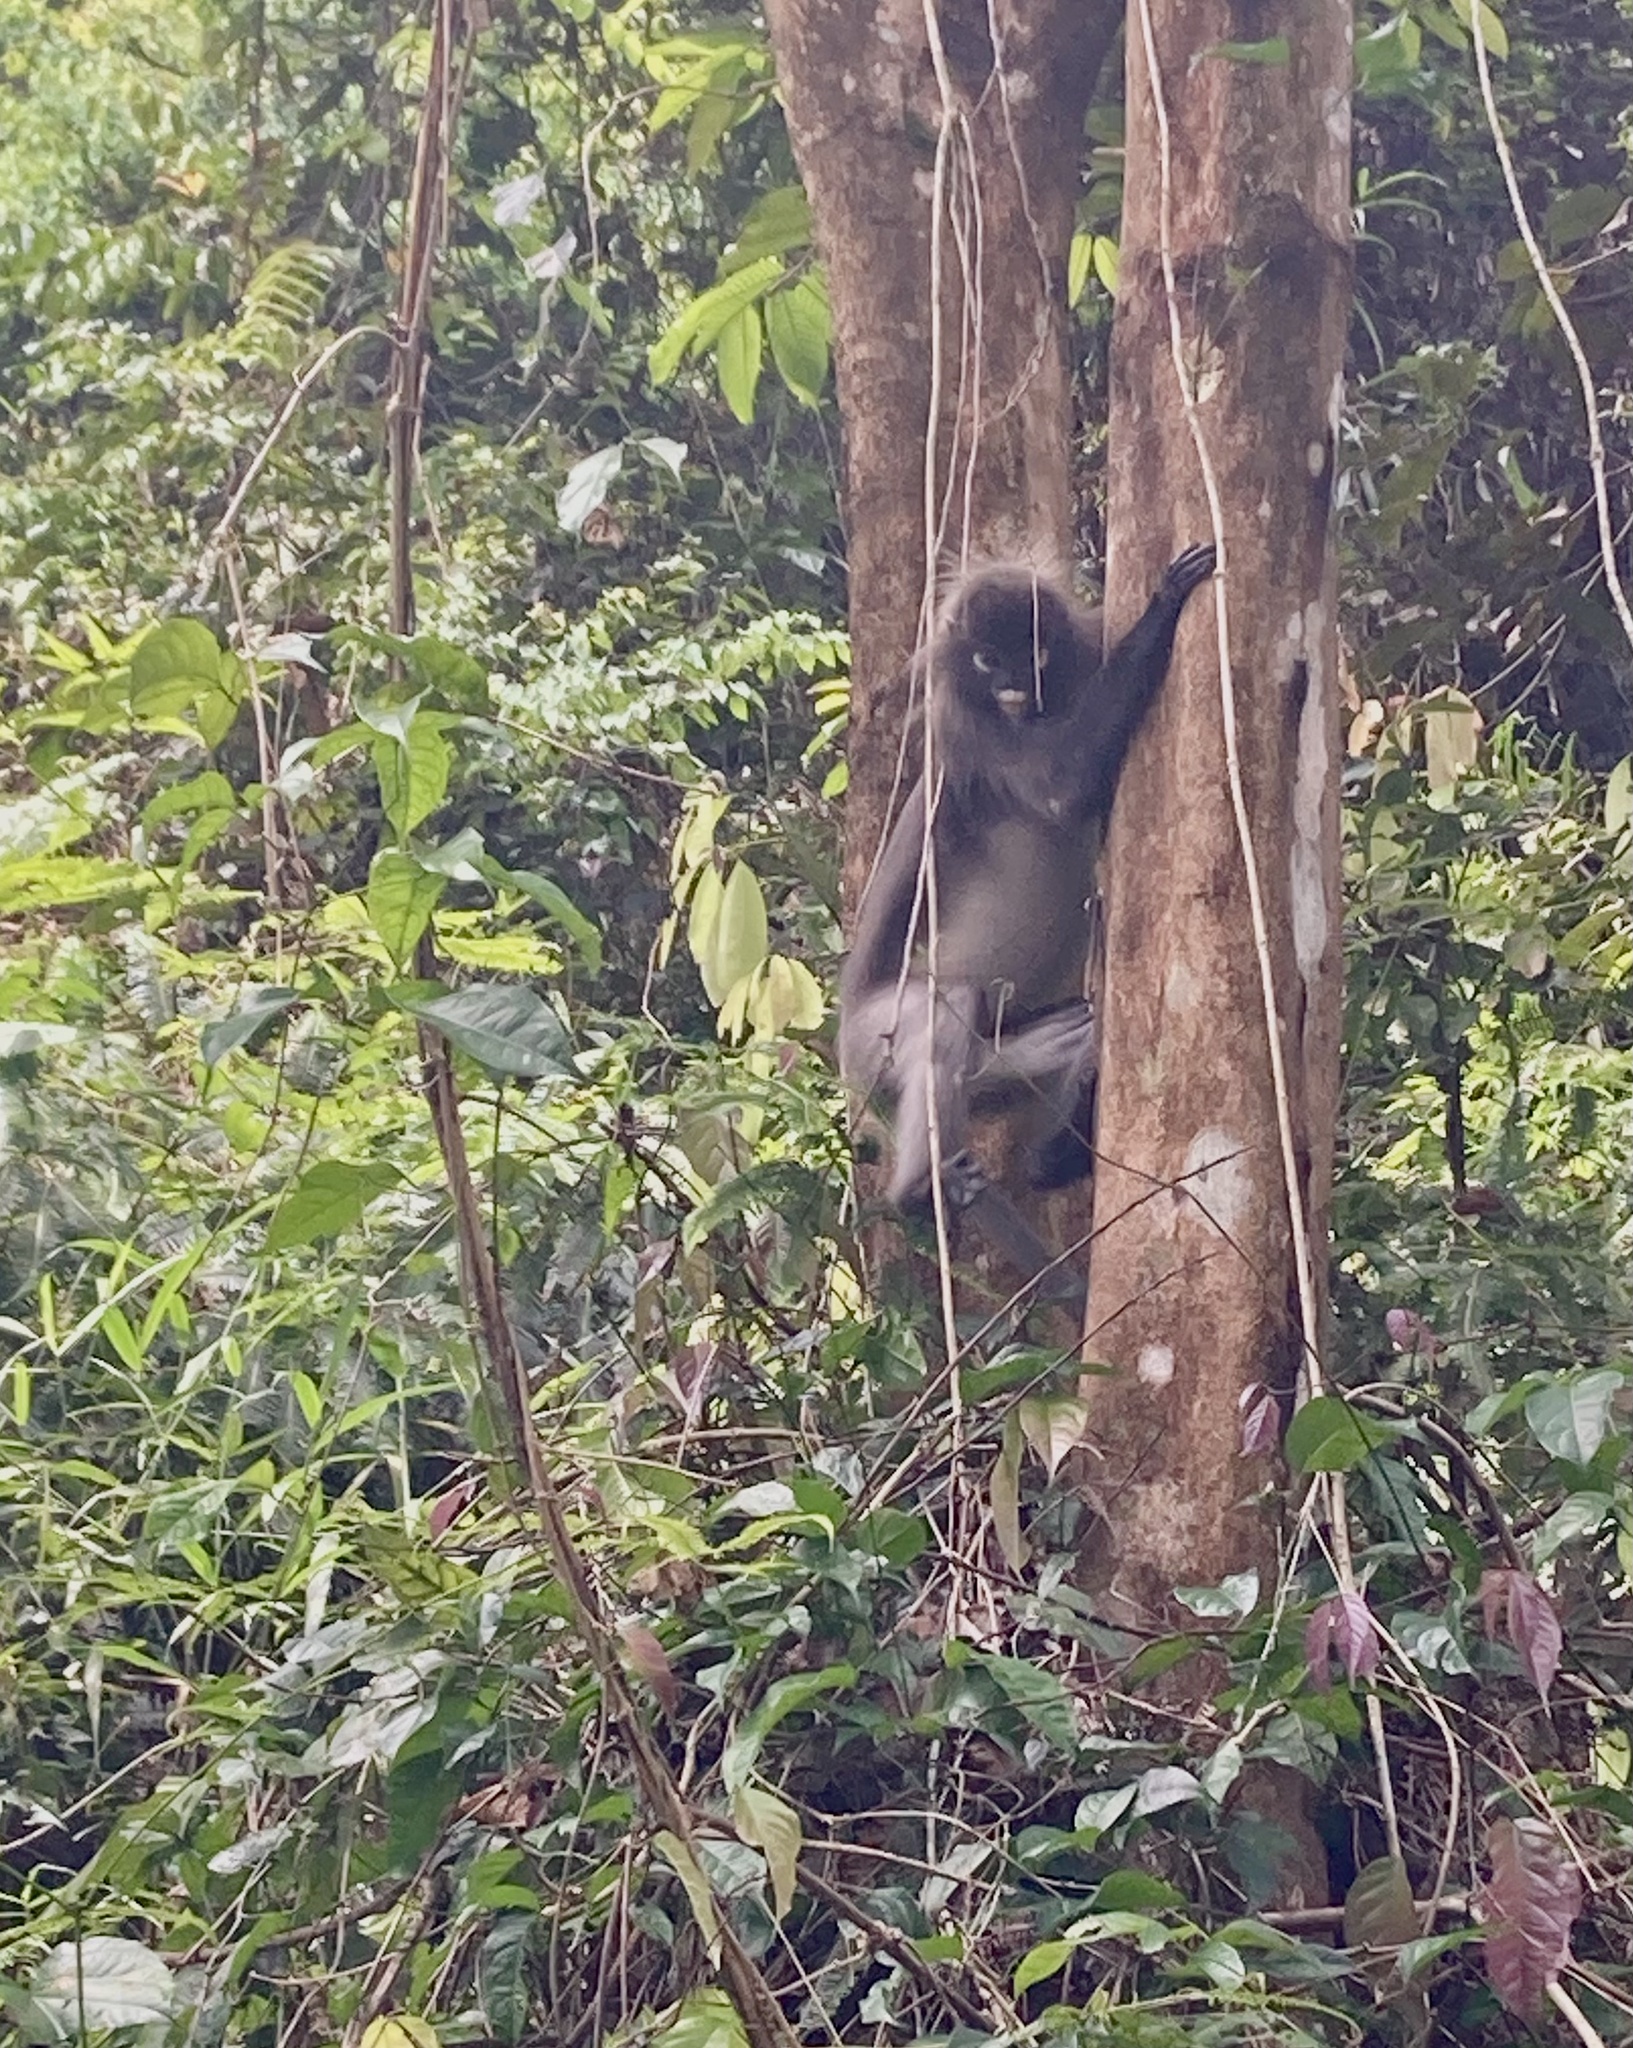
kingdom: Animalia
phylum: Chordata
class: Mammalia
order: Primates
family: Cercopithecidae
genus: Trachypithecus
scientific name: Trachypithecus obscurus
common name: Dusky leaf-monkey
